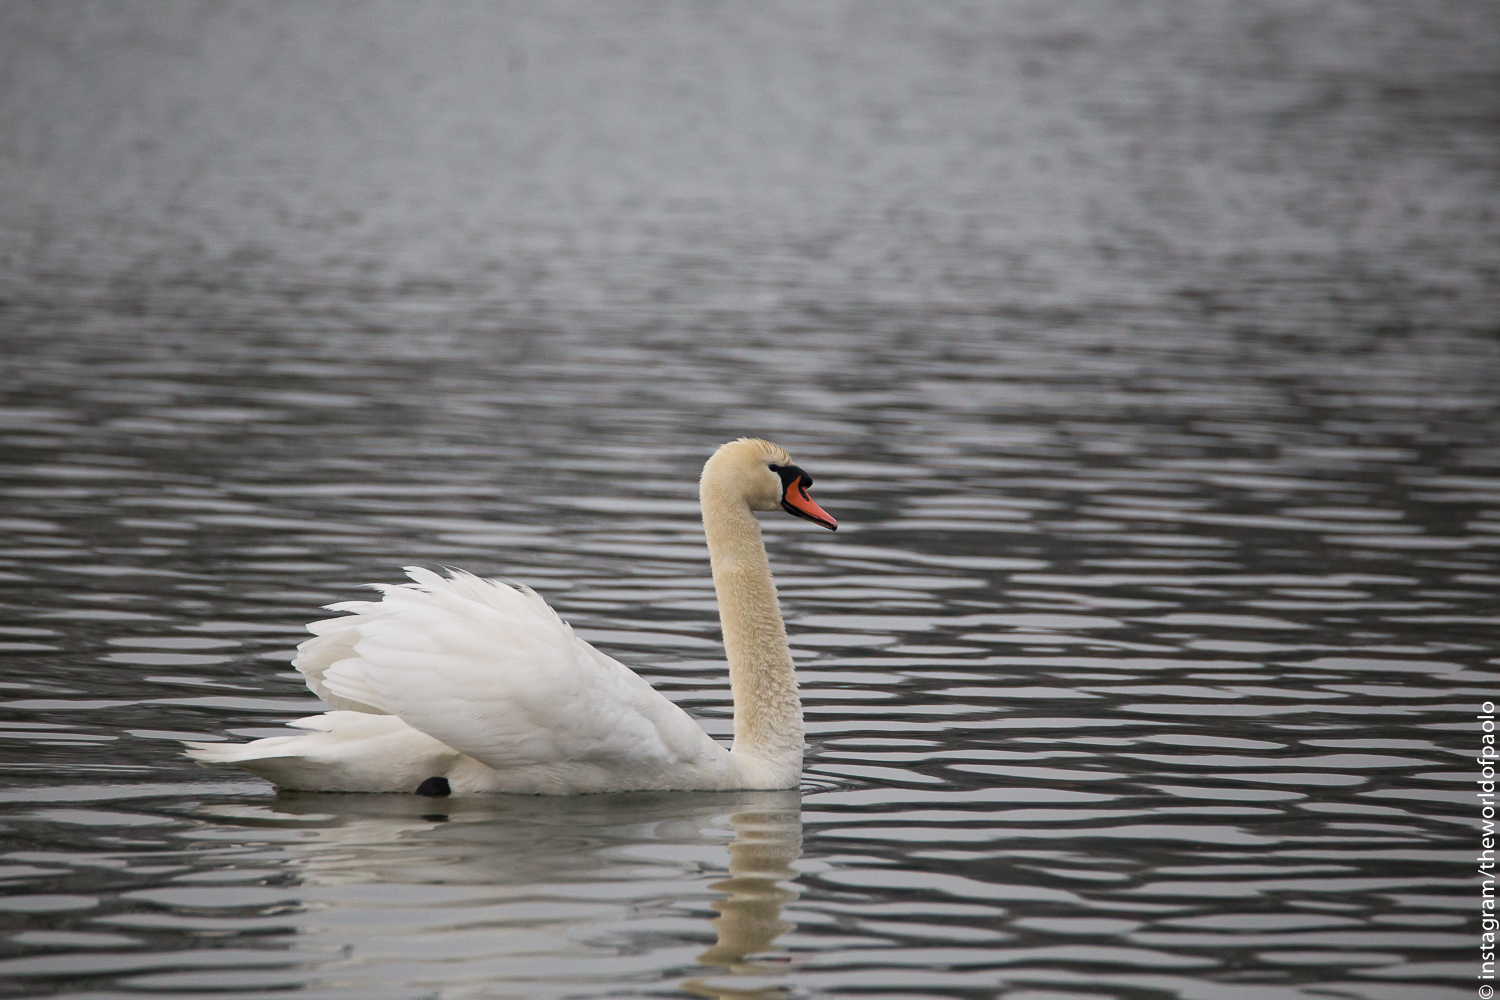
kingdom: Animalia
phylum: Chordata
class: Aves
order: Anseriformes
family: Anatidae
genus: Cygnus
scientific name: Cygnus olor
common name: Mute swan
